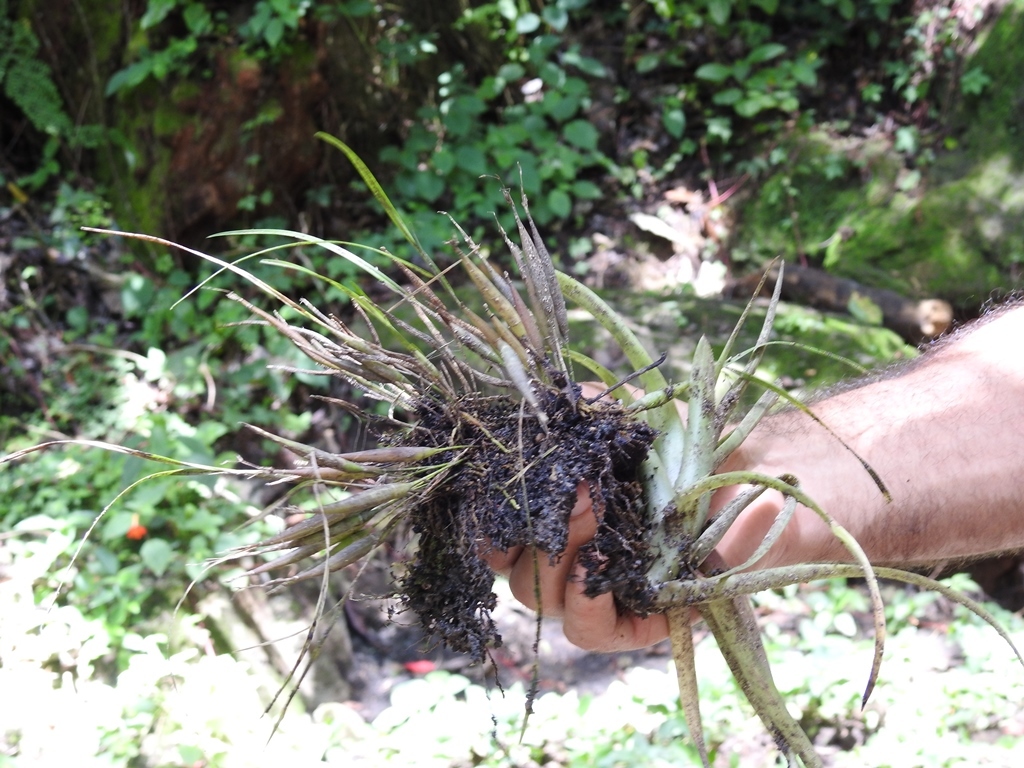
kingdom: Plantae
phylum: Tracheophyta
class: Liliopsida
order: Asparagales
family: Orchidaceae
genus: Scaphyglottis
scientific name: Scaphyglottis fasciculata
